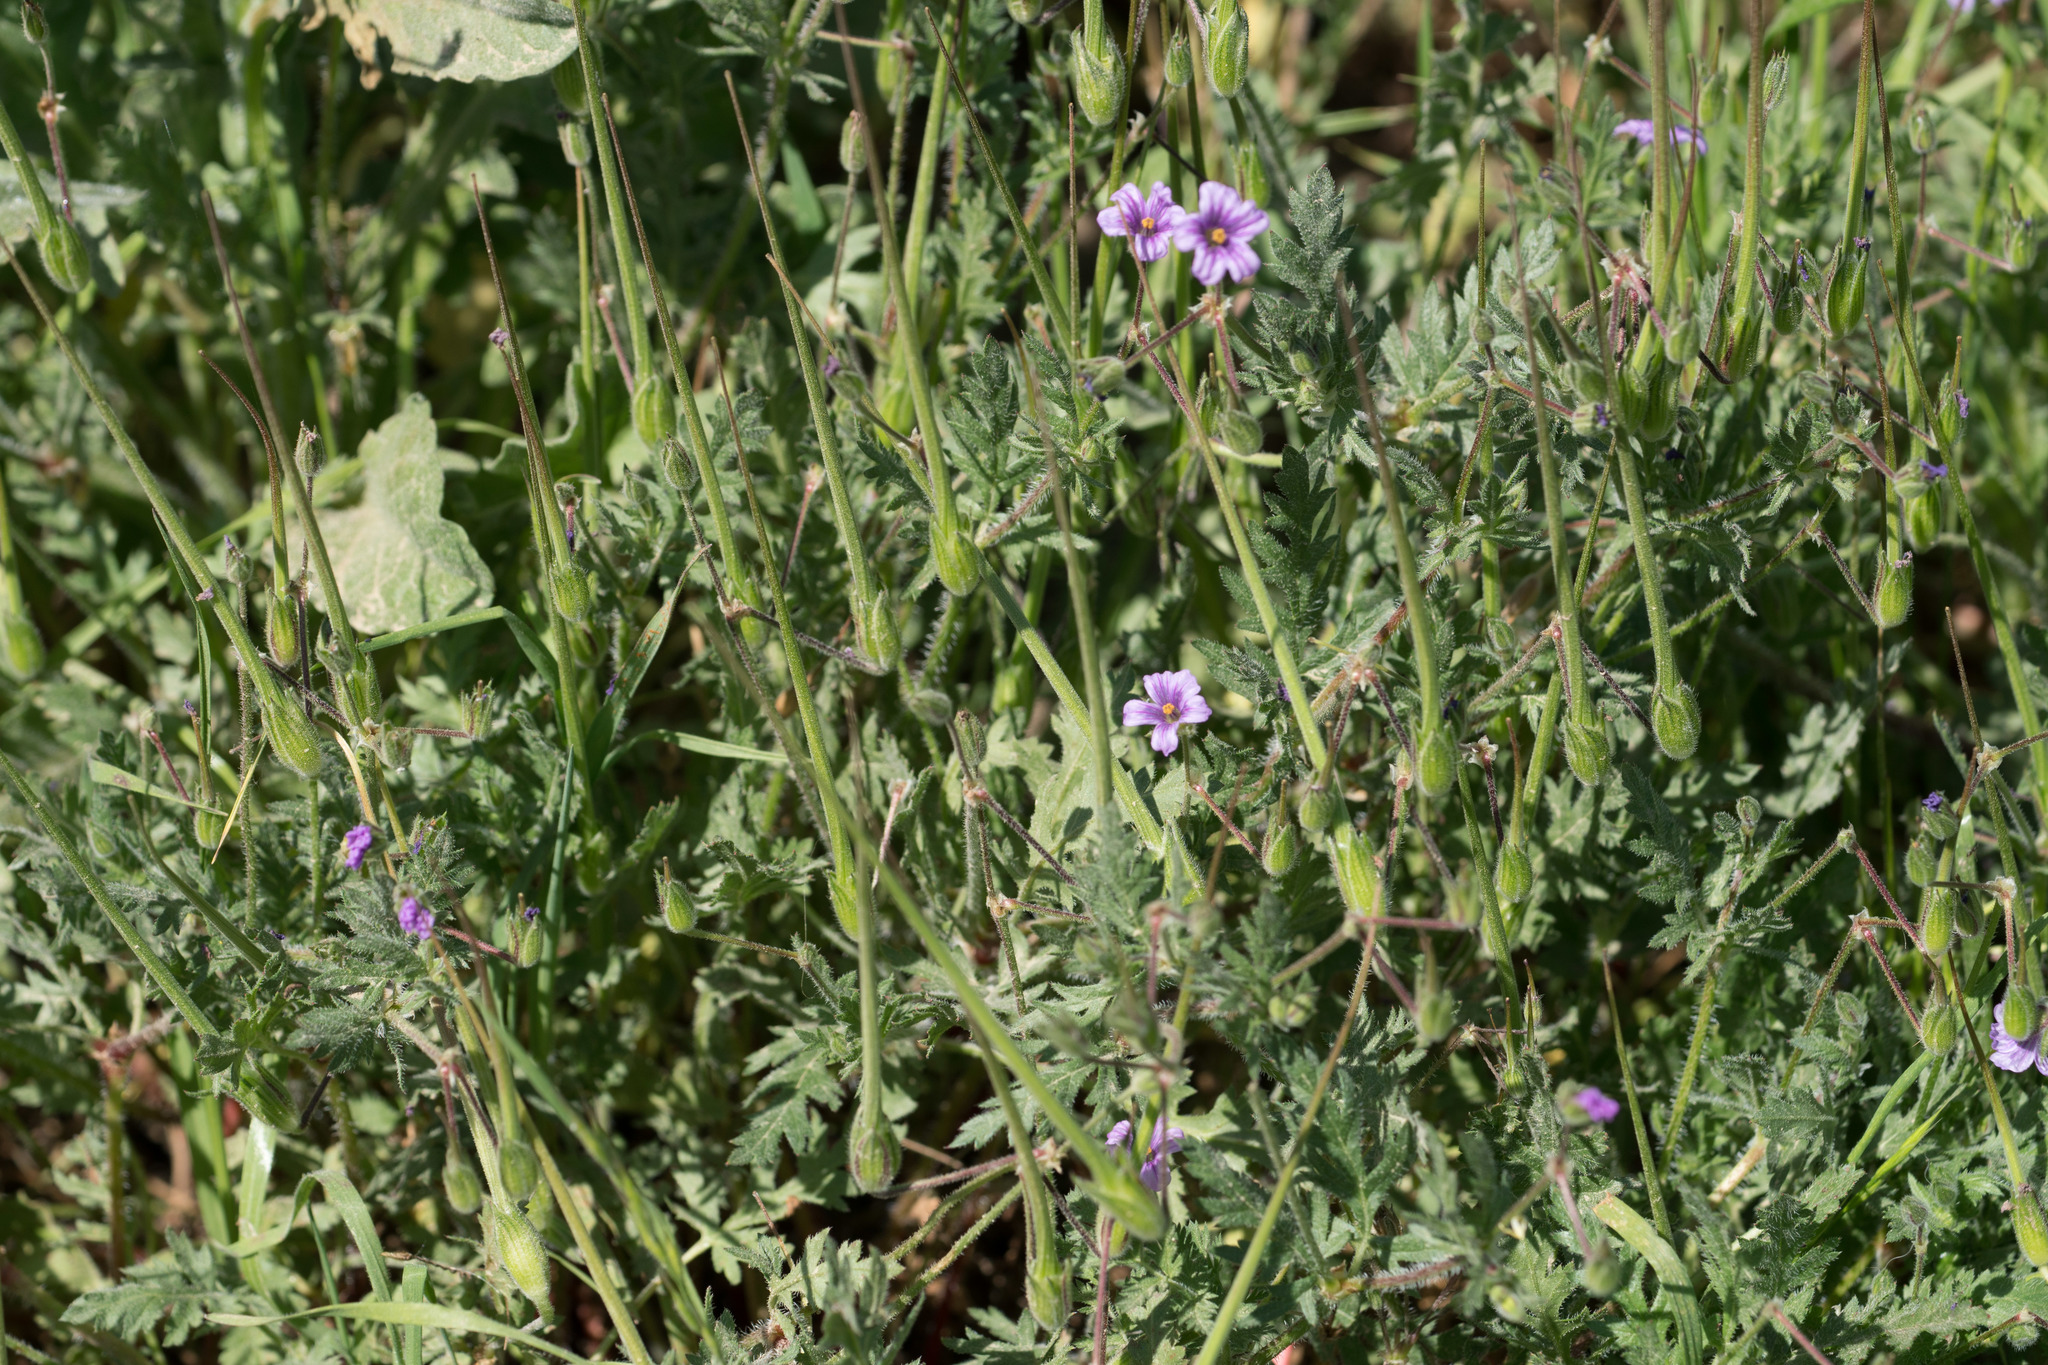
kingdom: Plantae
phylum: Tracheophyta
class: Magnoliopsida
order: Geraniales
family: Geraniaceae
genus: Erodium
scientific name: Erodium botrys
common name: Mediterranean stork's-bill
